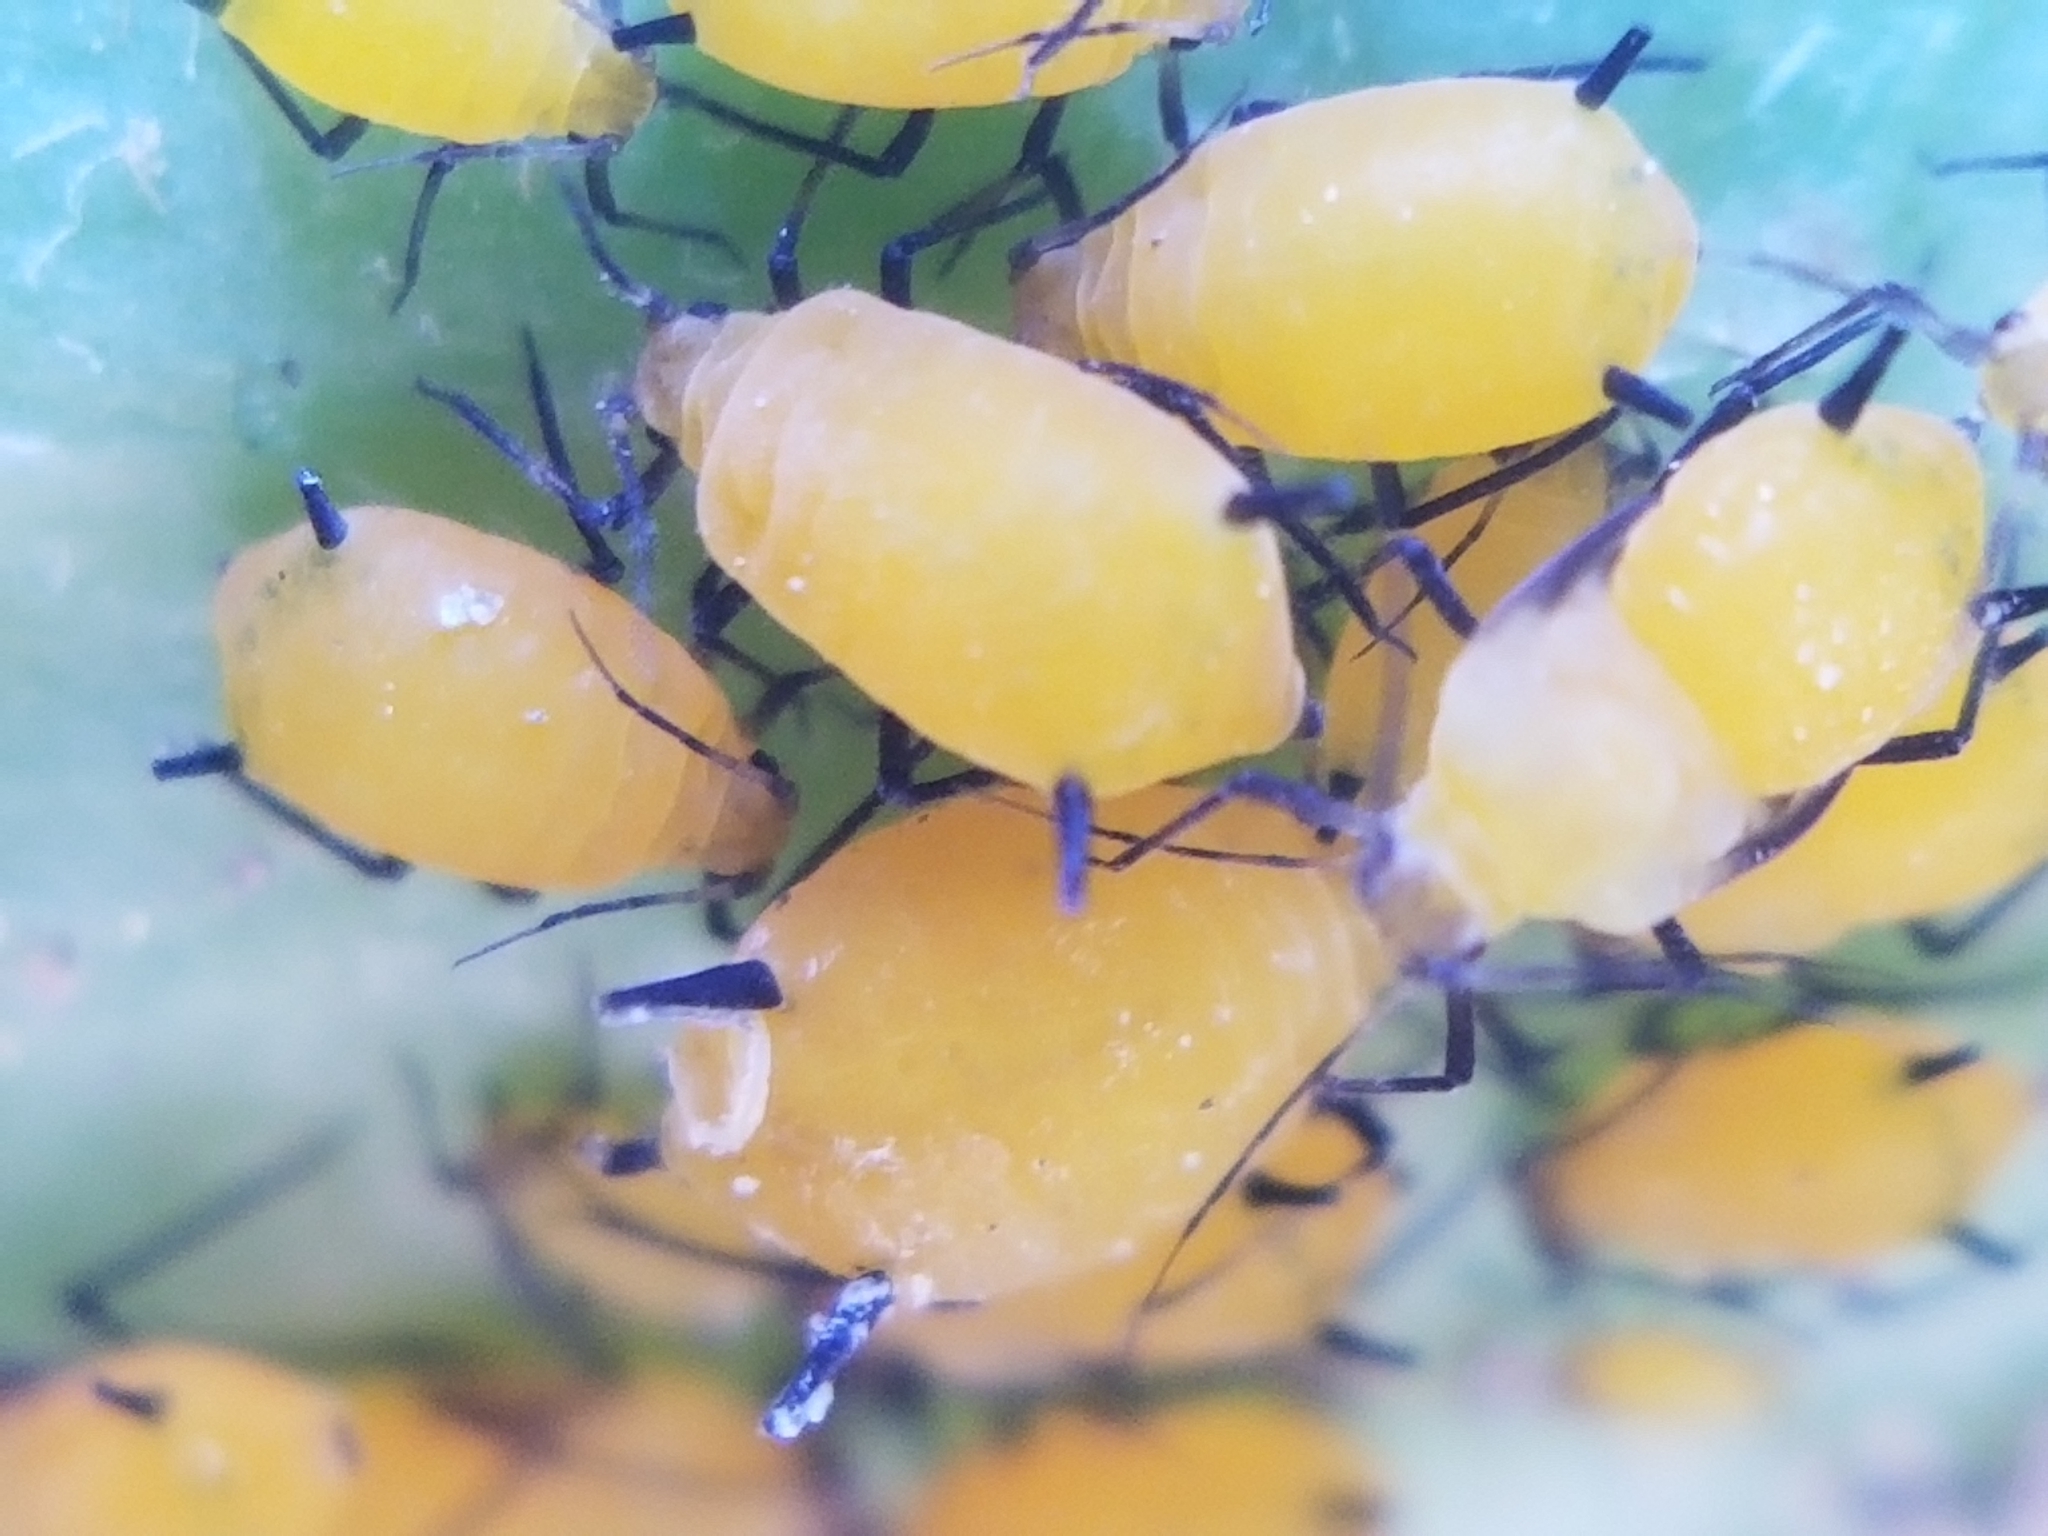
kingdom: Animalia
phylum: Arthropoda
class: Insecta
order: Hemiptera
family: Aphididae
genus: Aphis
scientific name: Aphis nerii
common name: Oleander aphid
